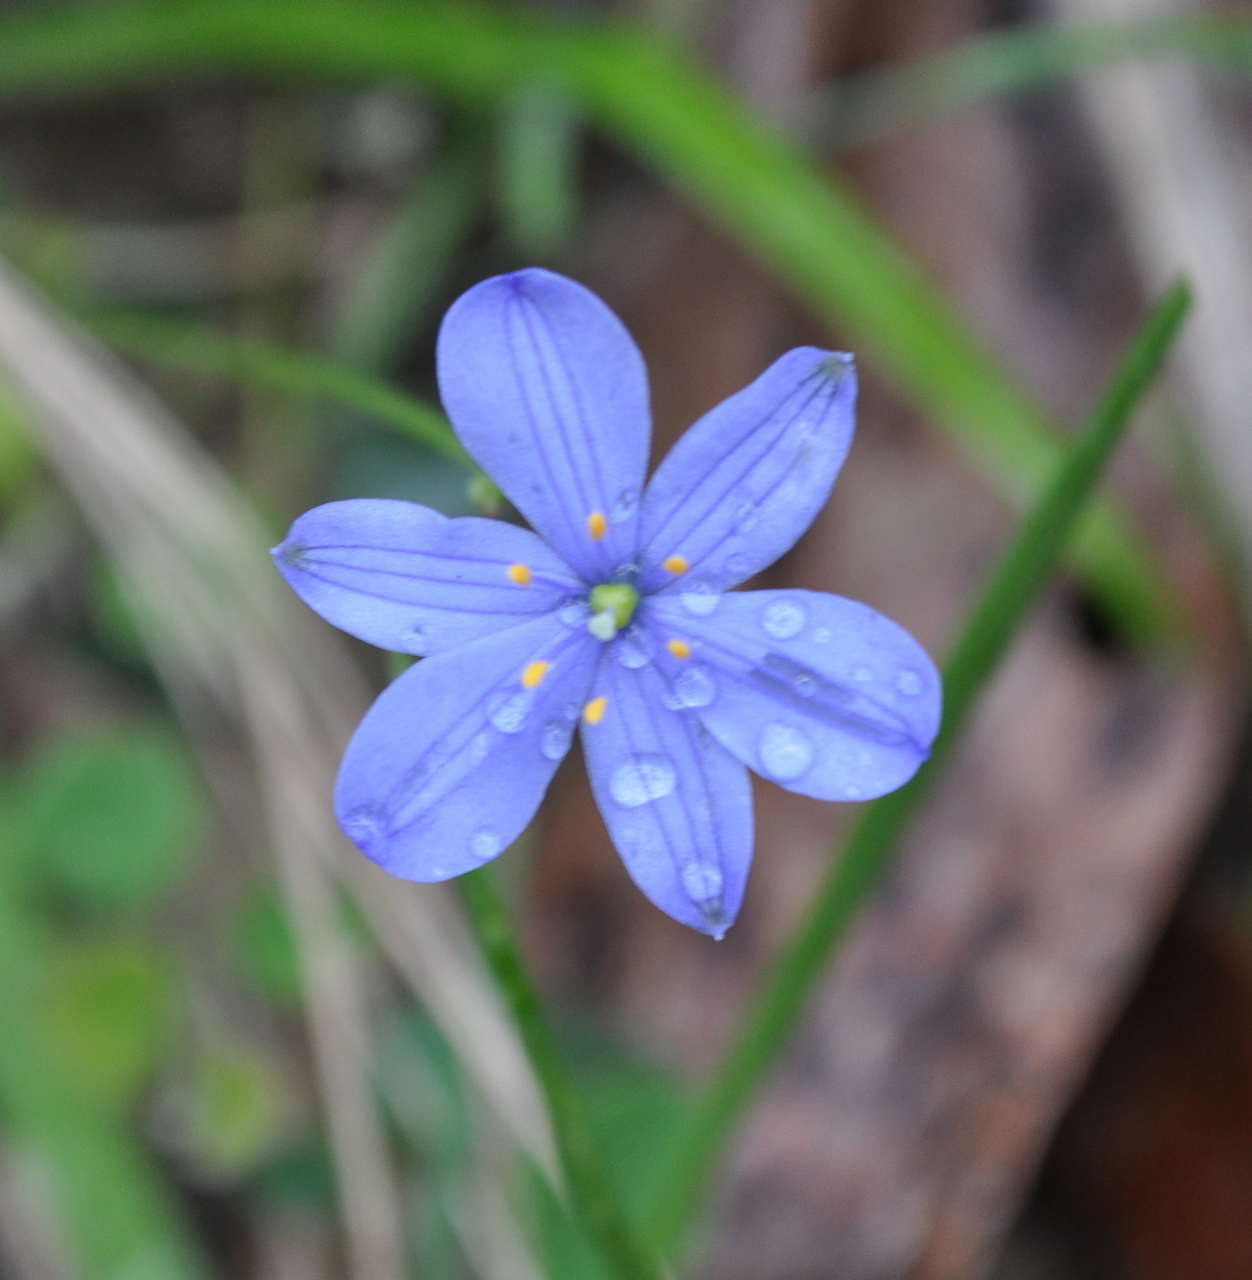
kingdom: Plantae
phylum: Tracheophyta
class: Liliopsida
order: Asparagales
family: Asphodelaceae
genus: Chamaescilla
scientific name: Chamaescilla corymbosa
